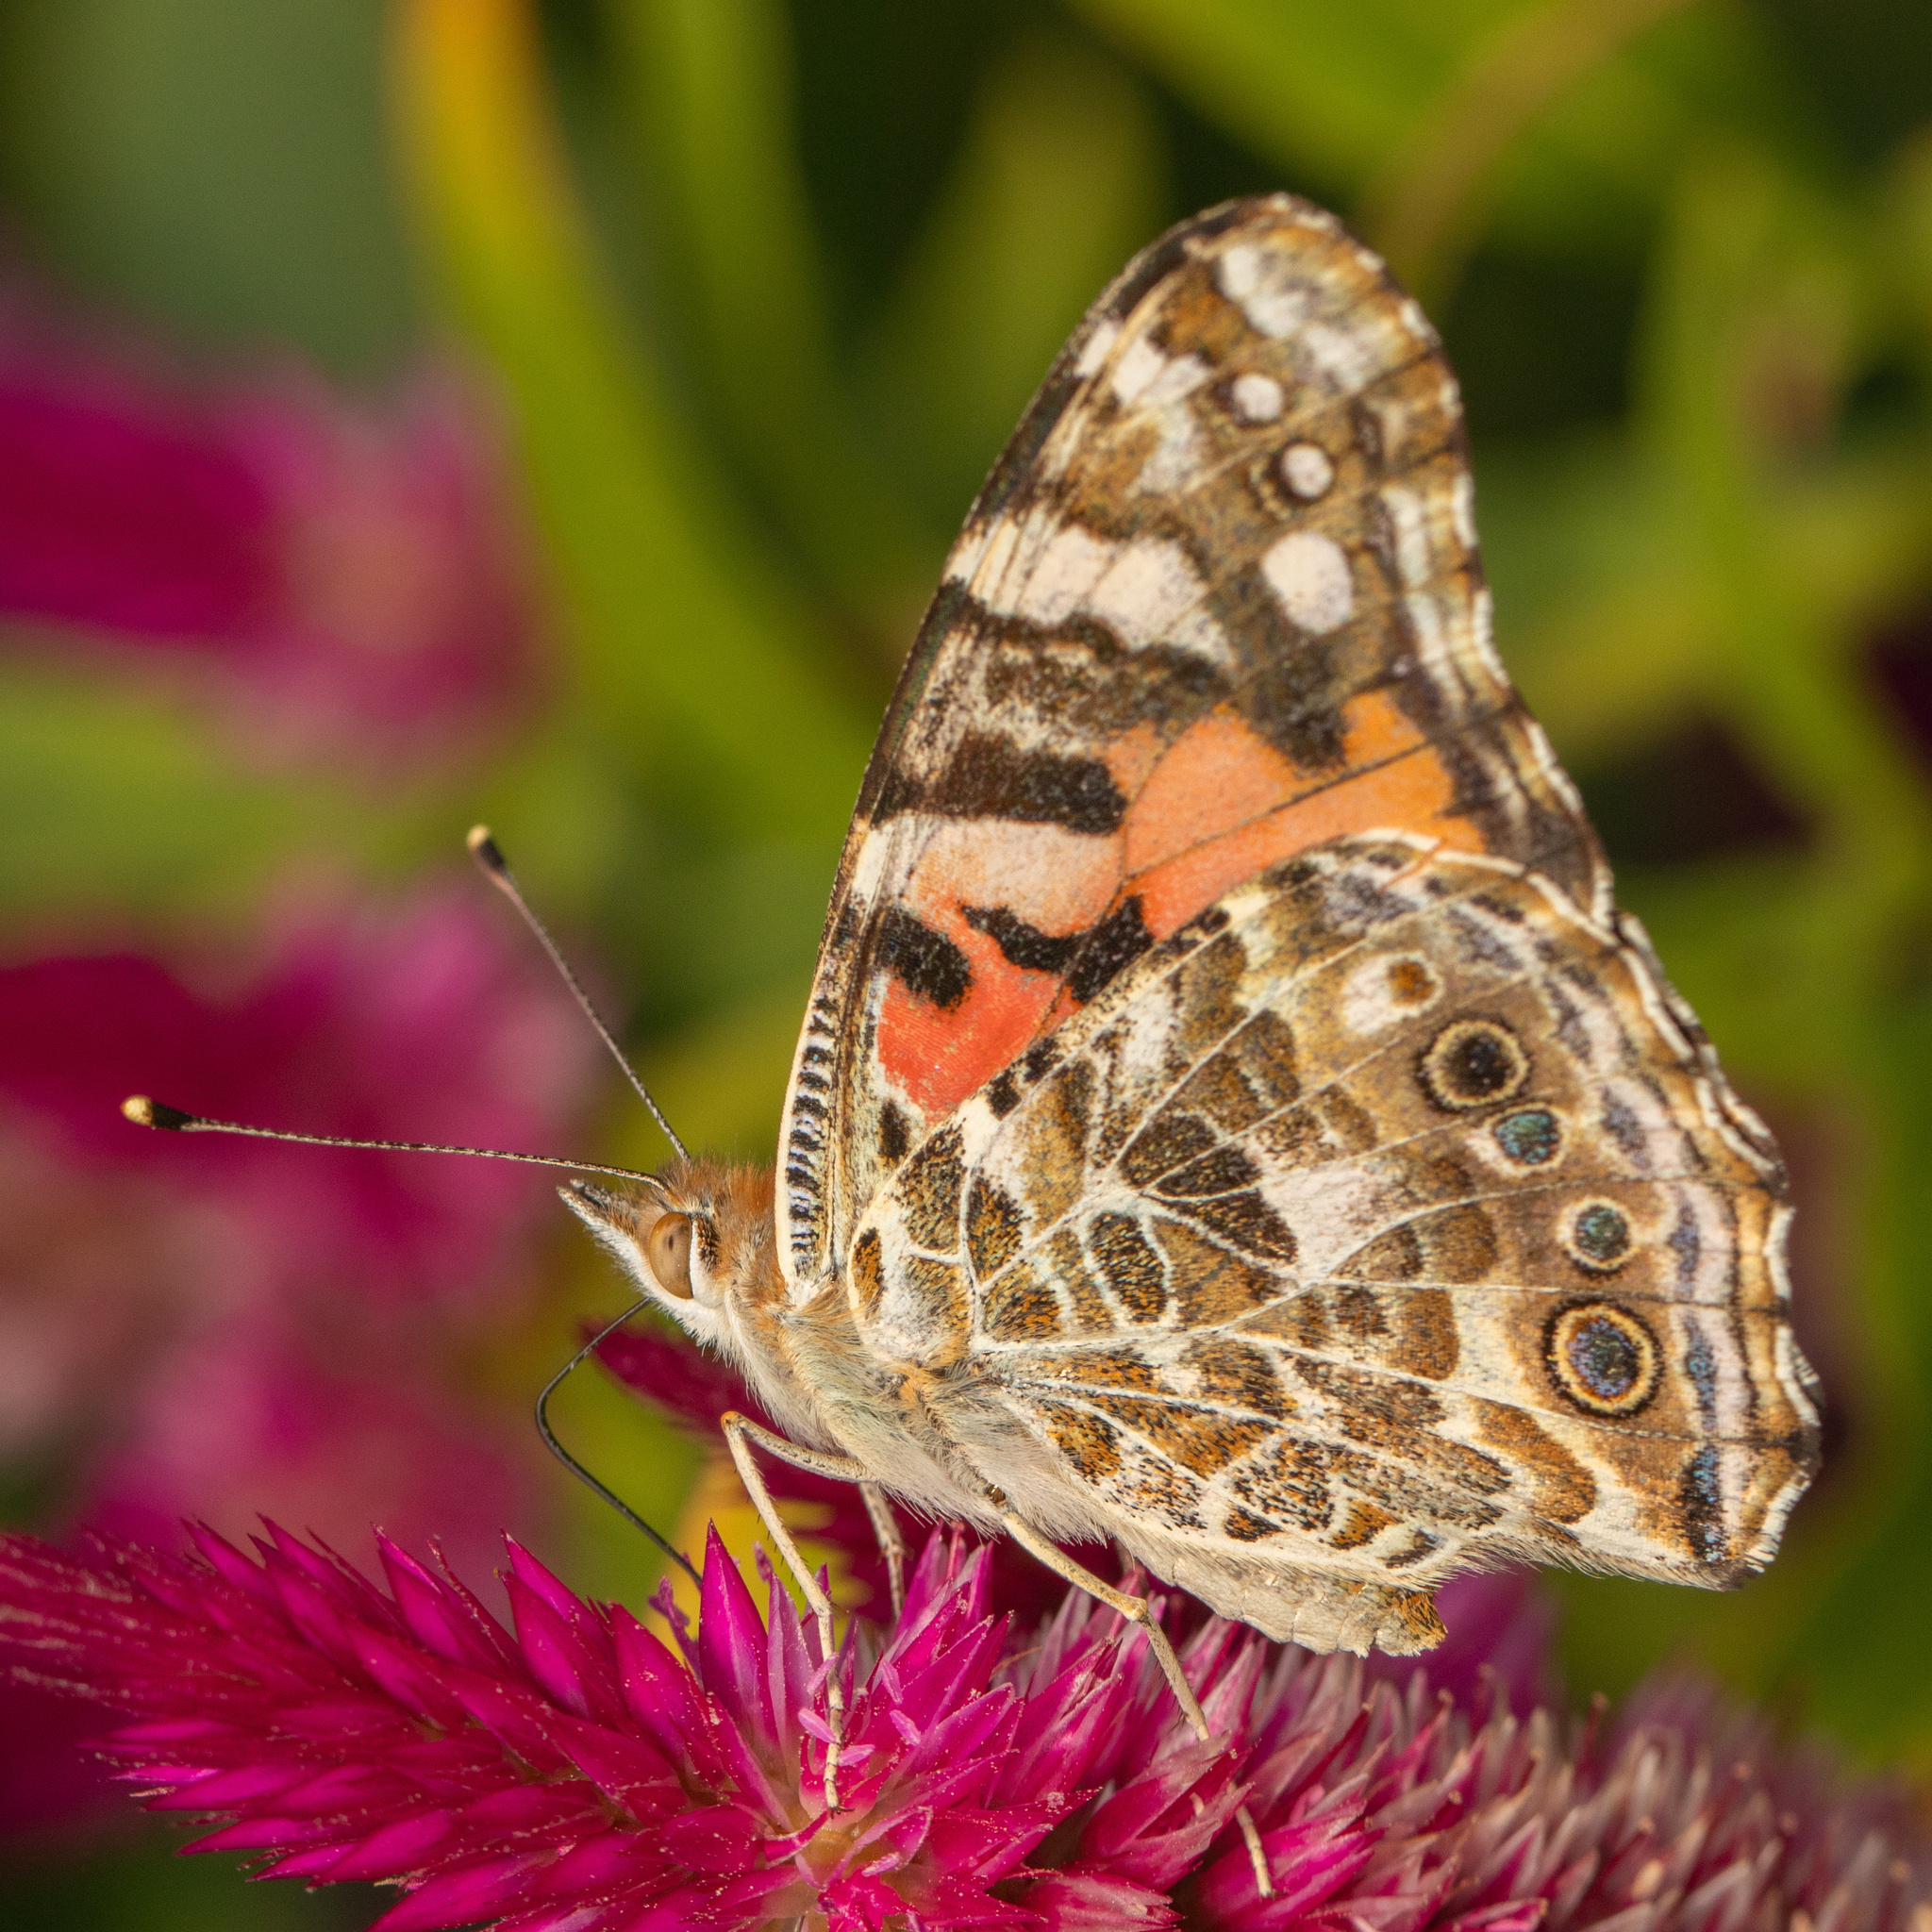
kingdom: Animalia
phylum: Arthropoda
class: Insecta
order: Lepidoptera
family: Nymphalidae
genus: Vanessa
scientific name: Vanessa cardui
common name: Painted lady
